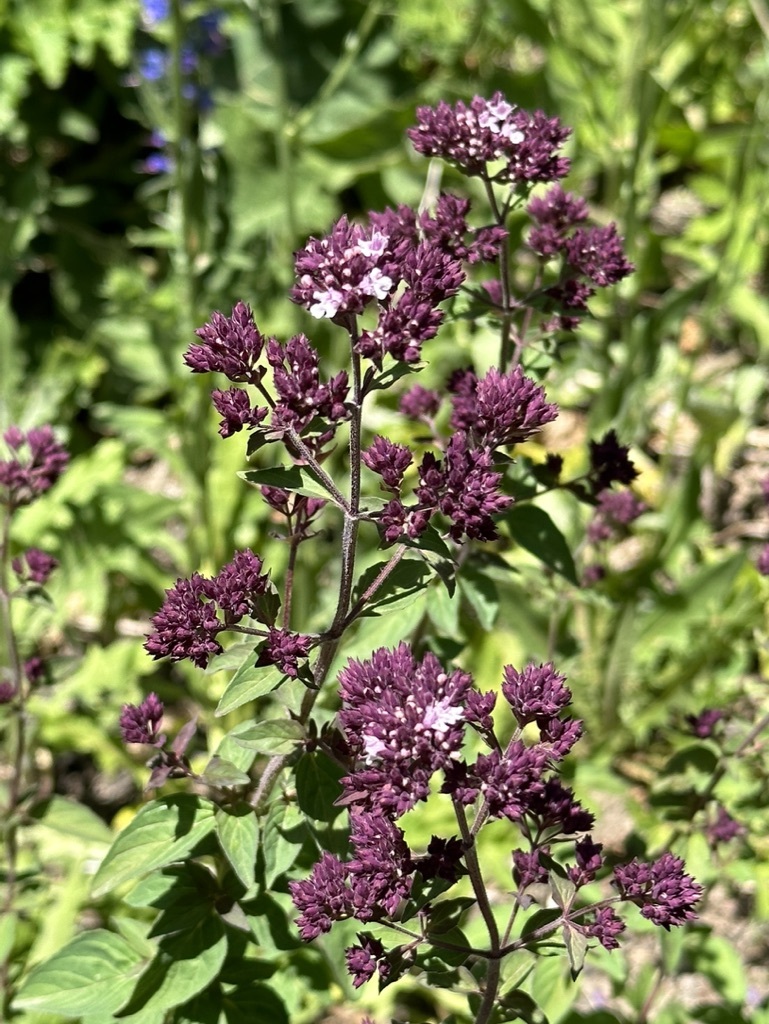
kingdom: Plantae
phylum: Tracheophyta
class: Magnoliopsida
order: Lamiales
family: Lamiaceae
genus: Origanum
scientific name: Origanum vulgare
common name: Wild marjoram
